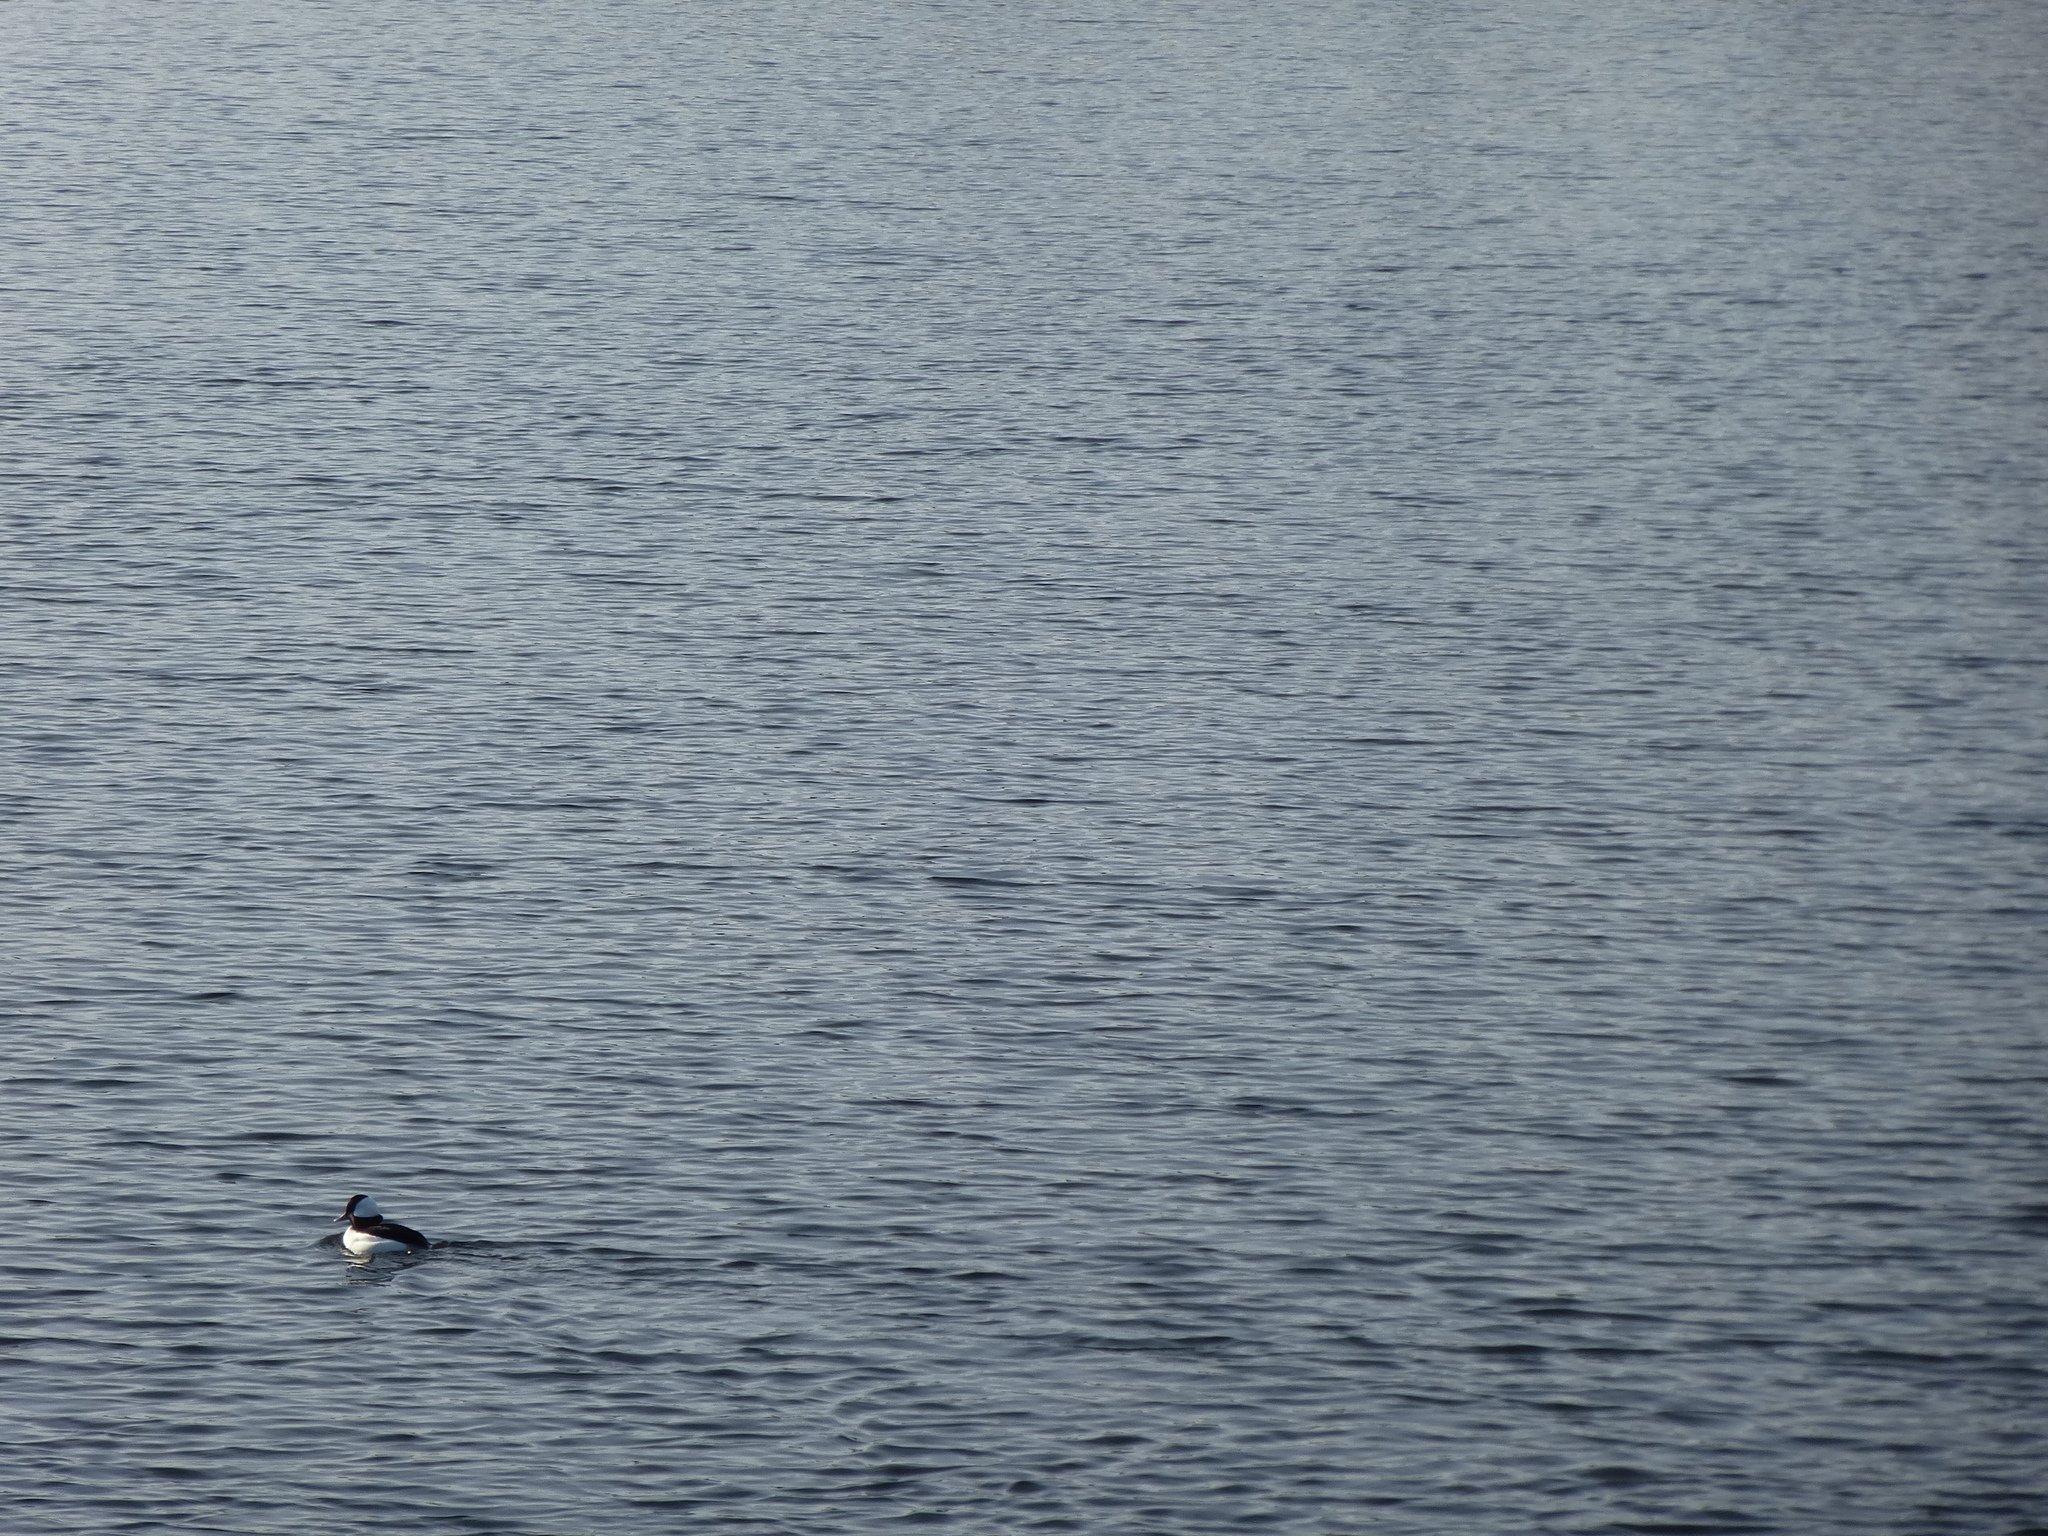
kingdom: Animalia
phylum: Chordata
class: Aves
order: Anseriformes
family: Anatidae
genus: Bucephala
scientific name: Bucephala albeola
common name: Bufflehead
